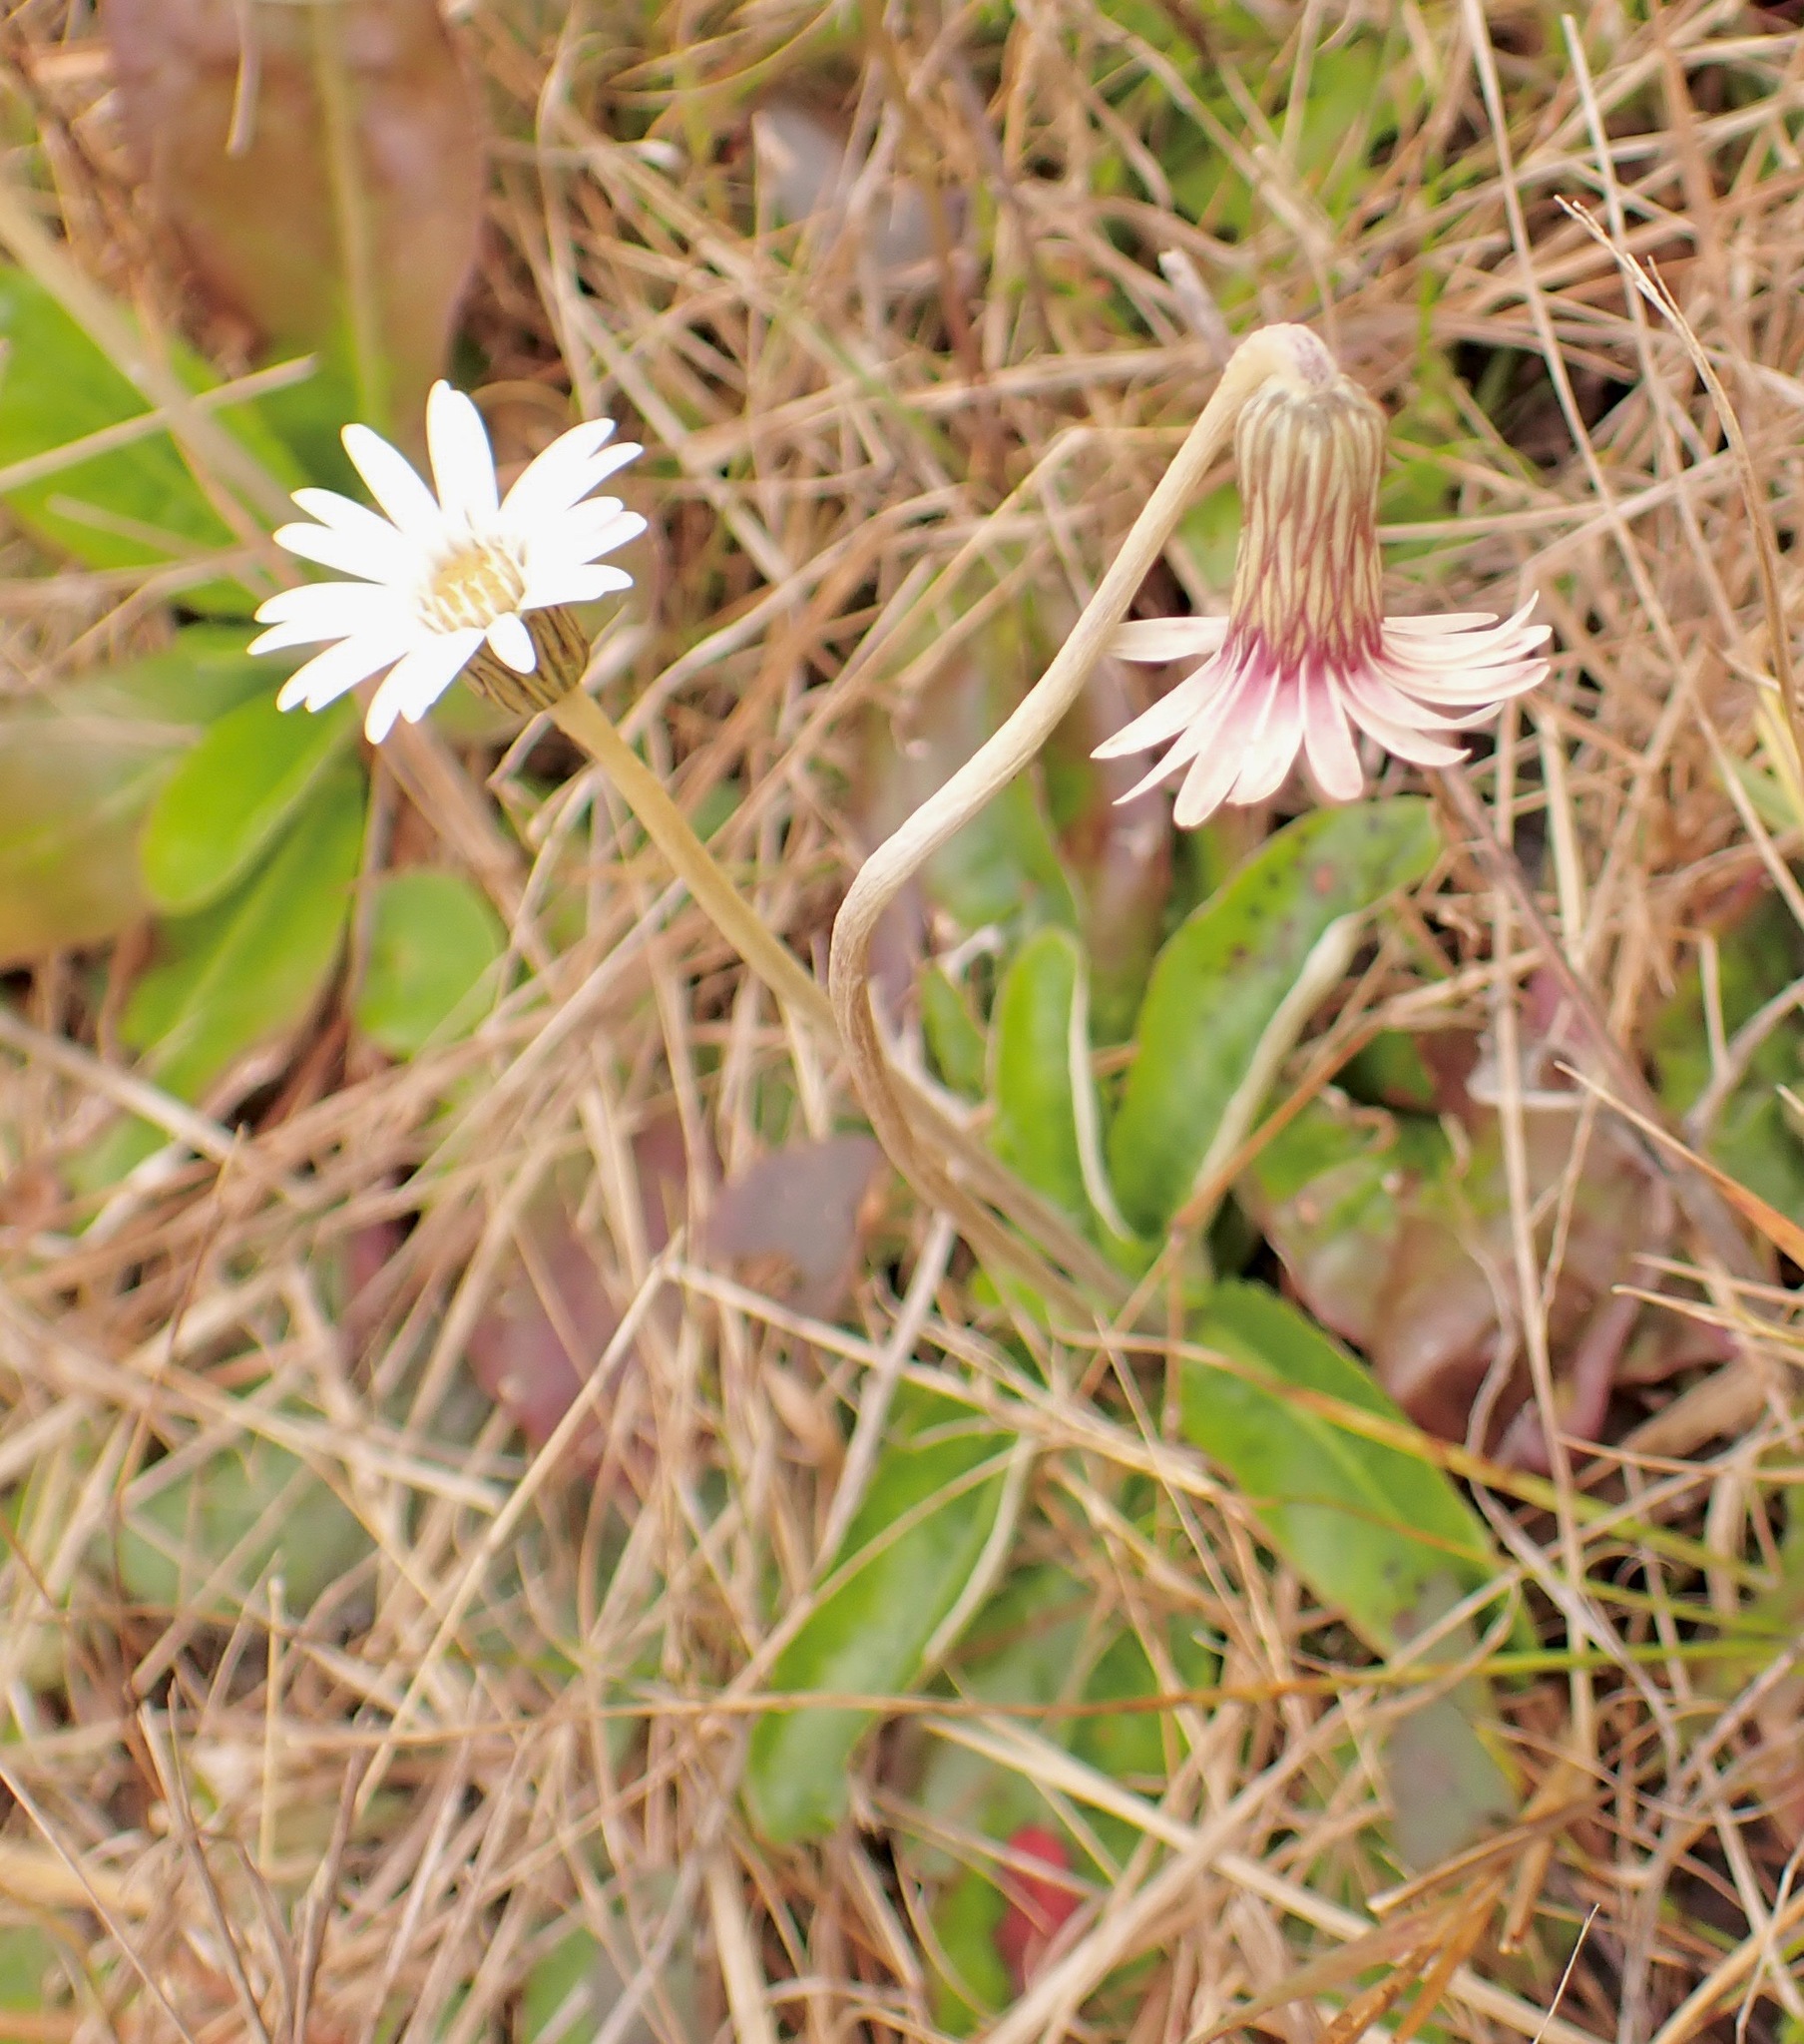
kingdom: Plantae
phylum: Tracheophyta
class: Magnoliopsida
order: Asterales
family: Asteraceae
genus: Chaptalia
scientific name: Chaptalia tomentosa
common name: Woolly sunbonnet
